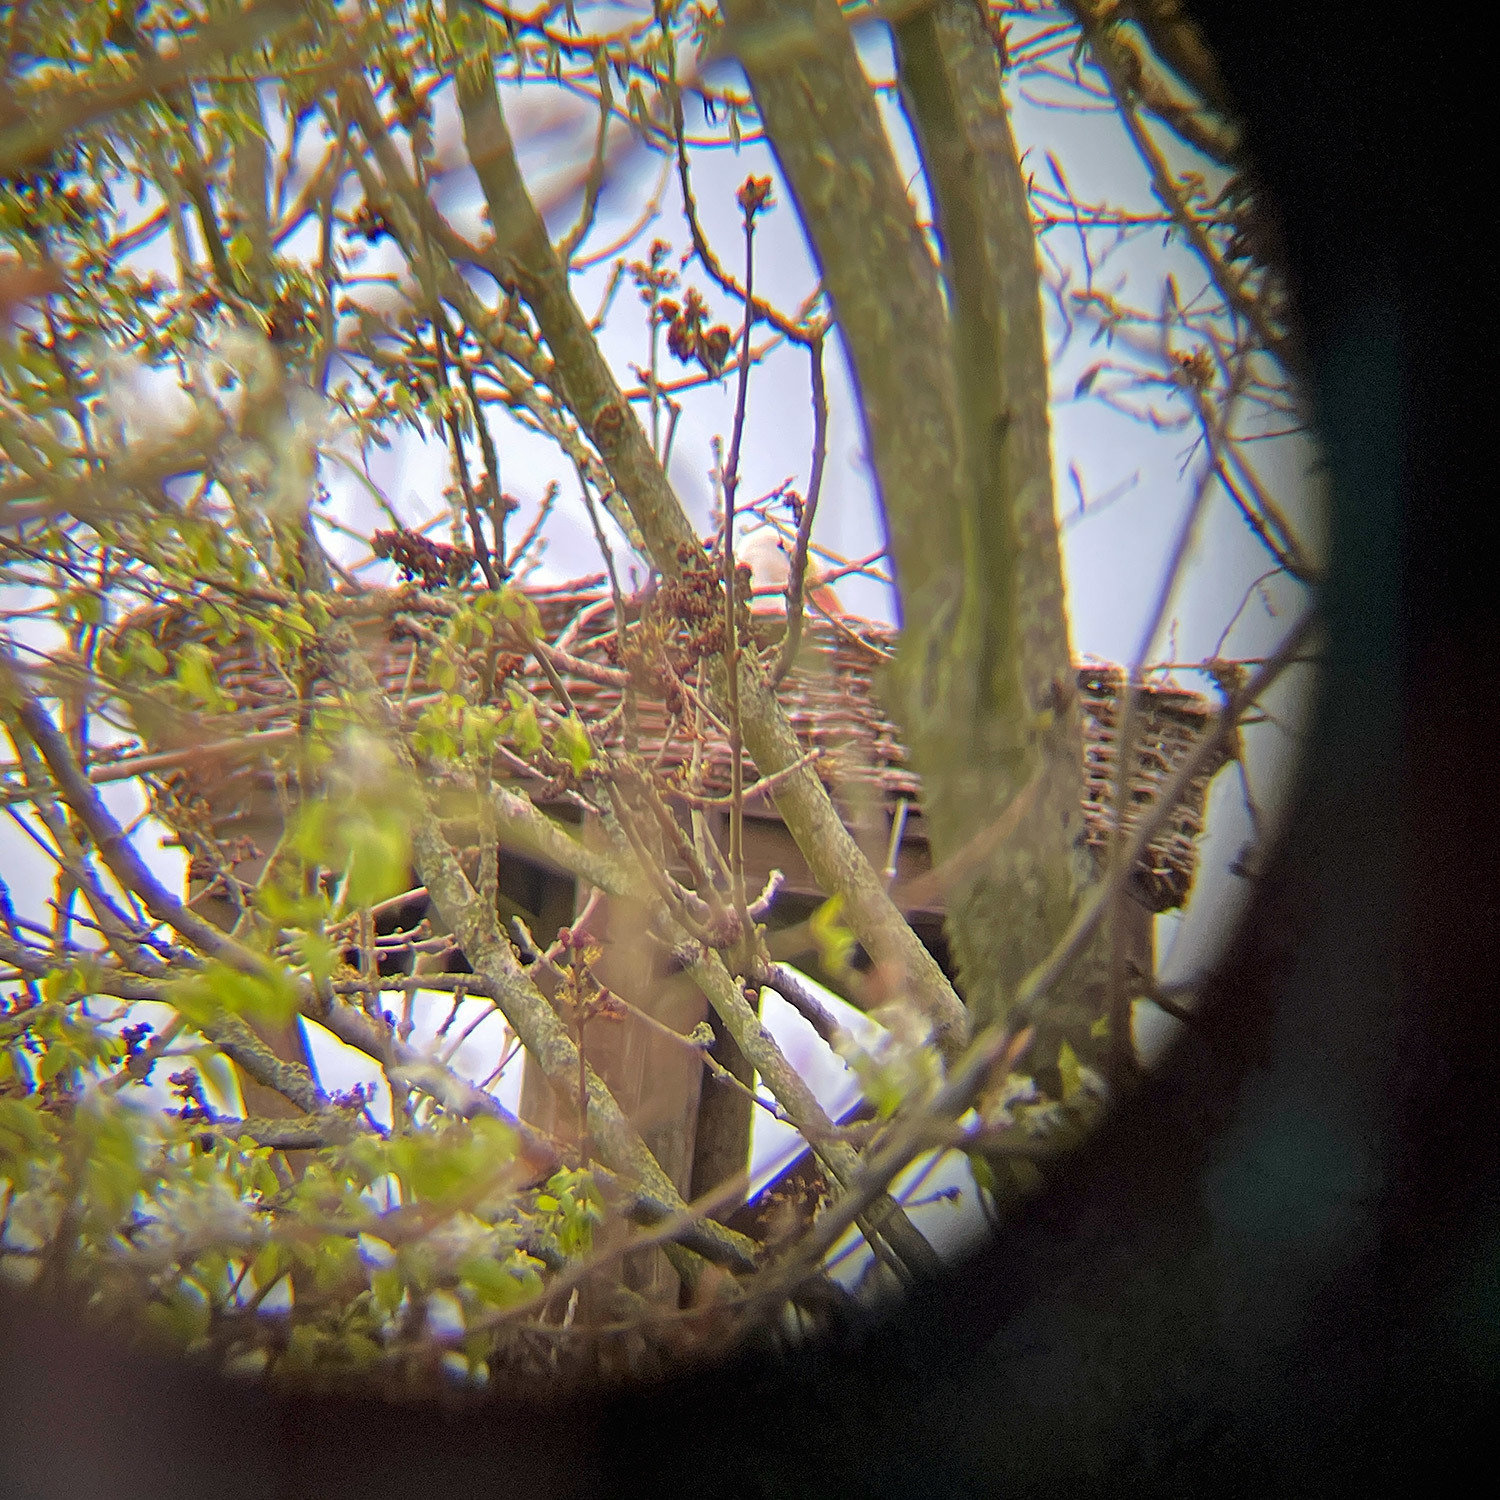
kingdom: Animalia
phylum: Chordata
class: Aves
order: Ciconiiformes
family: Ciconiidae
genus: Ciconia
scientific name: Ciconia ciconia
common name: White stork
